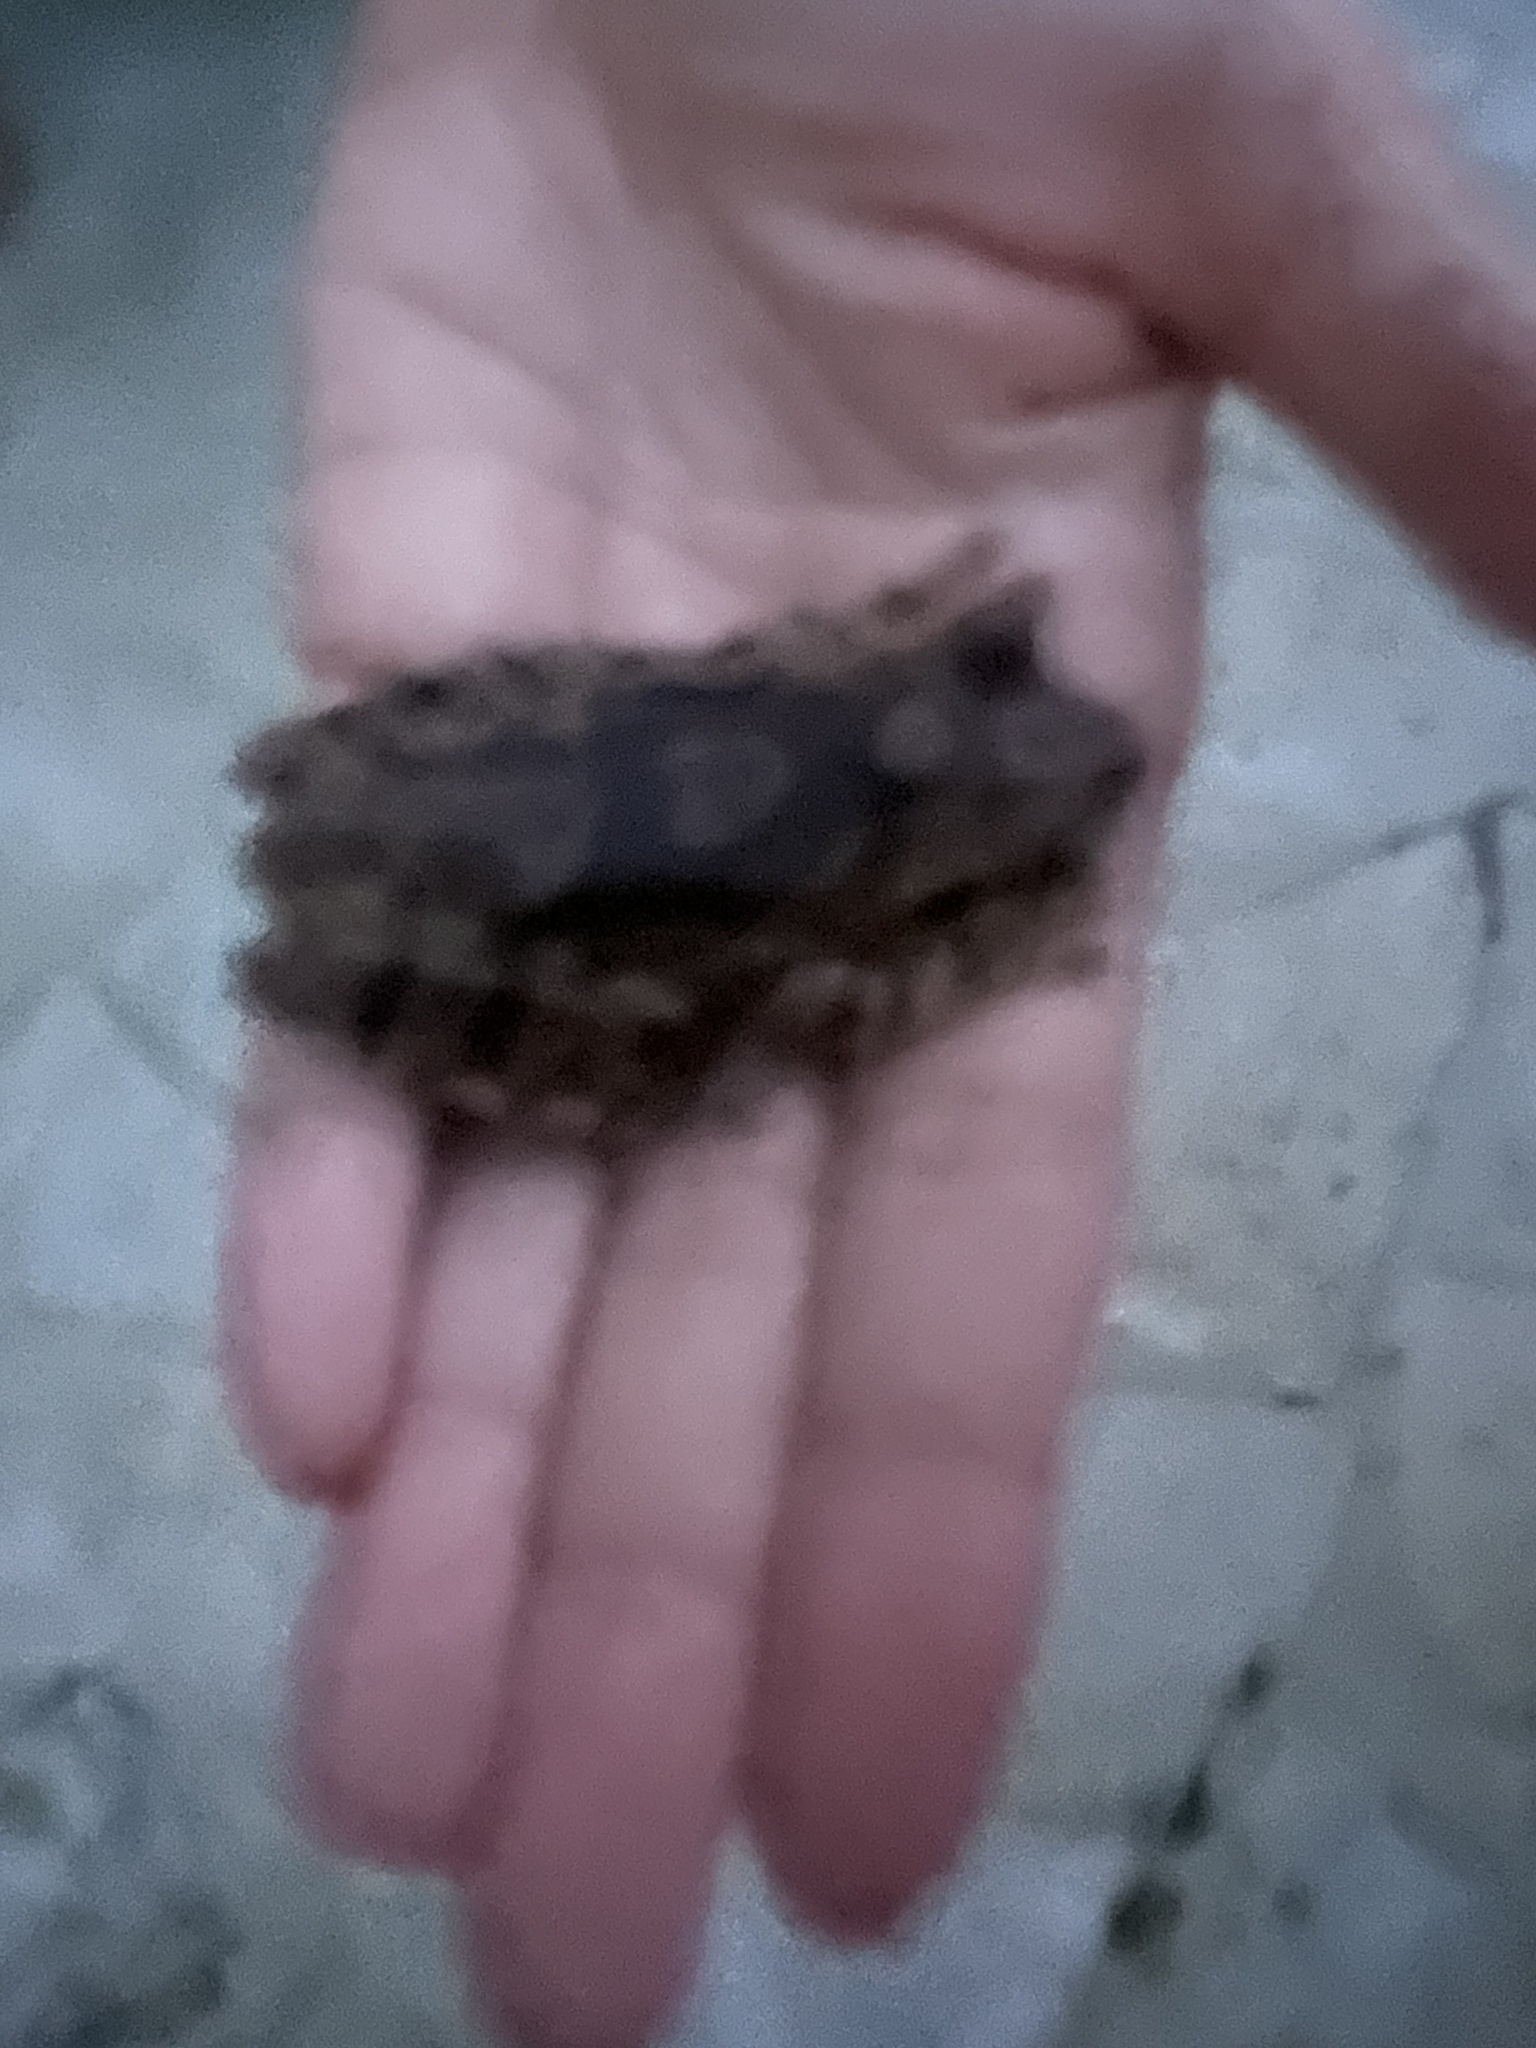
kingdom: Animalia
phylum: Chordata
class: Amphibia
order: Anura
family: Hylidae
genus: Smilisca
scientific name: Smilisca baudinii
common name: Mexican smilisca
